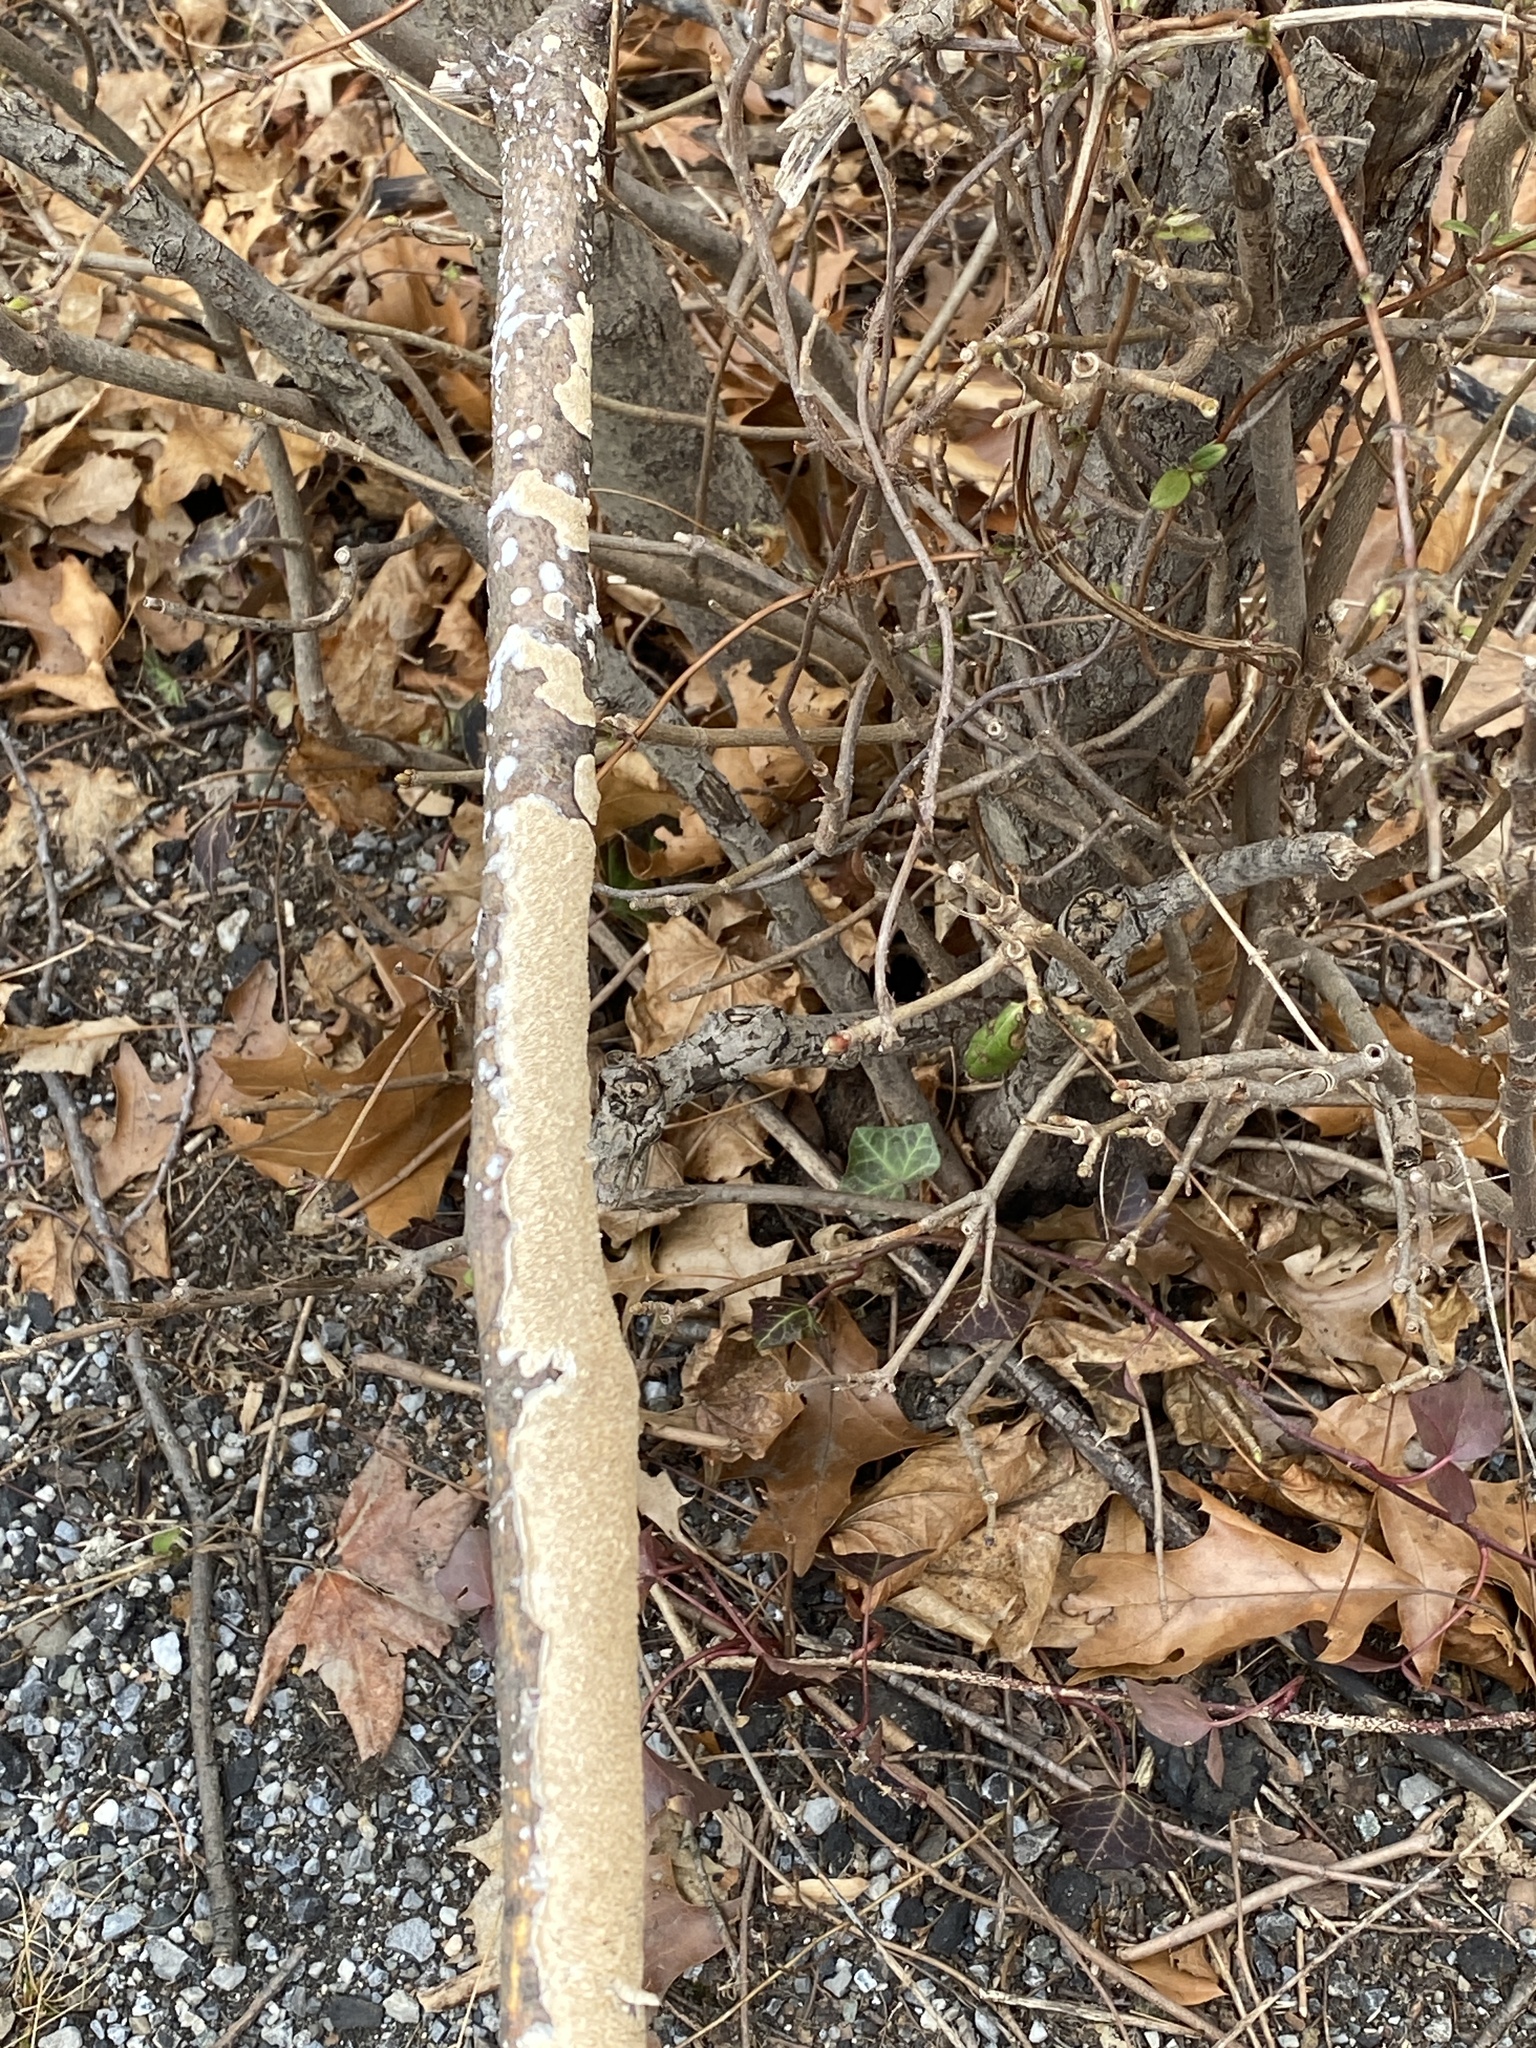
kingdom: Fungi
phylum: Basidiomycota
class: Agaricomycetes
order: Polyporales
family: Irpicaceae
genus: Irpex
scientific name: Irpex lacteus
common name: Milk-white toothed polypore
